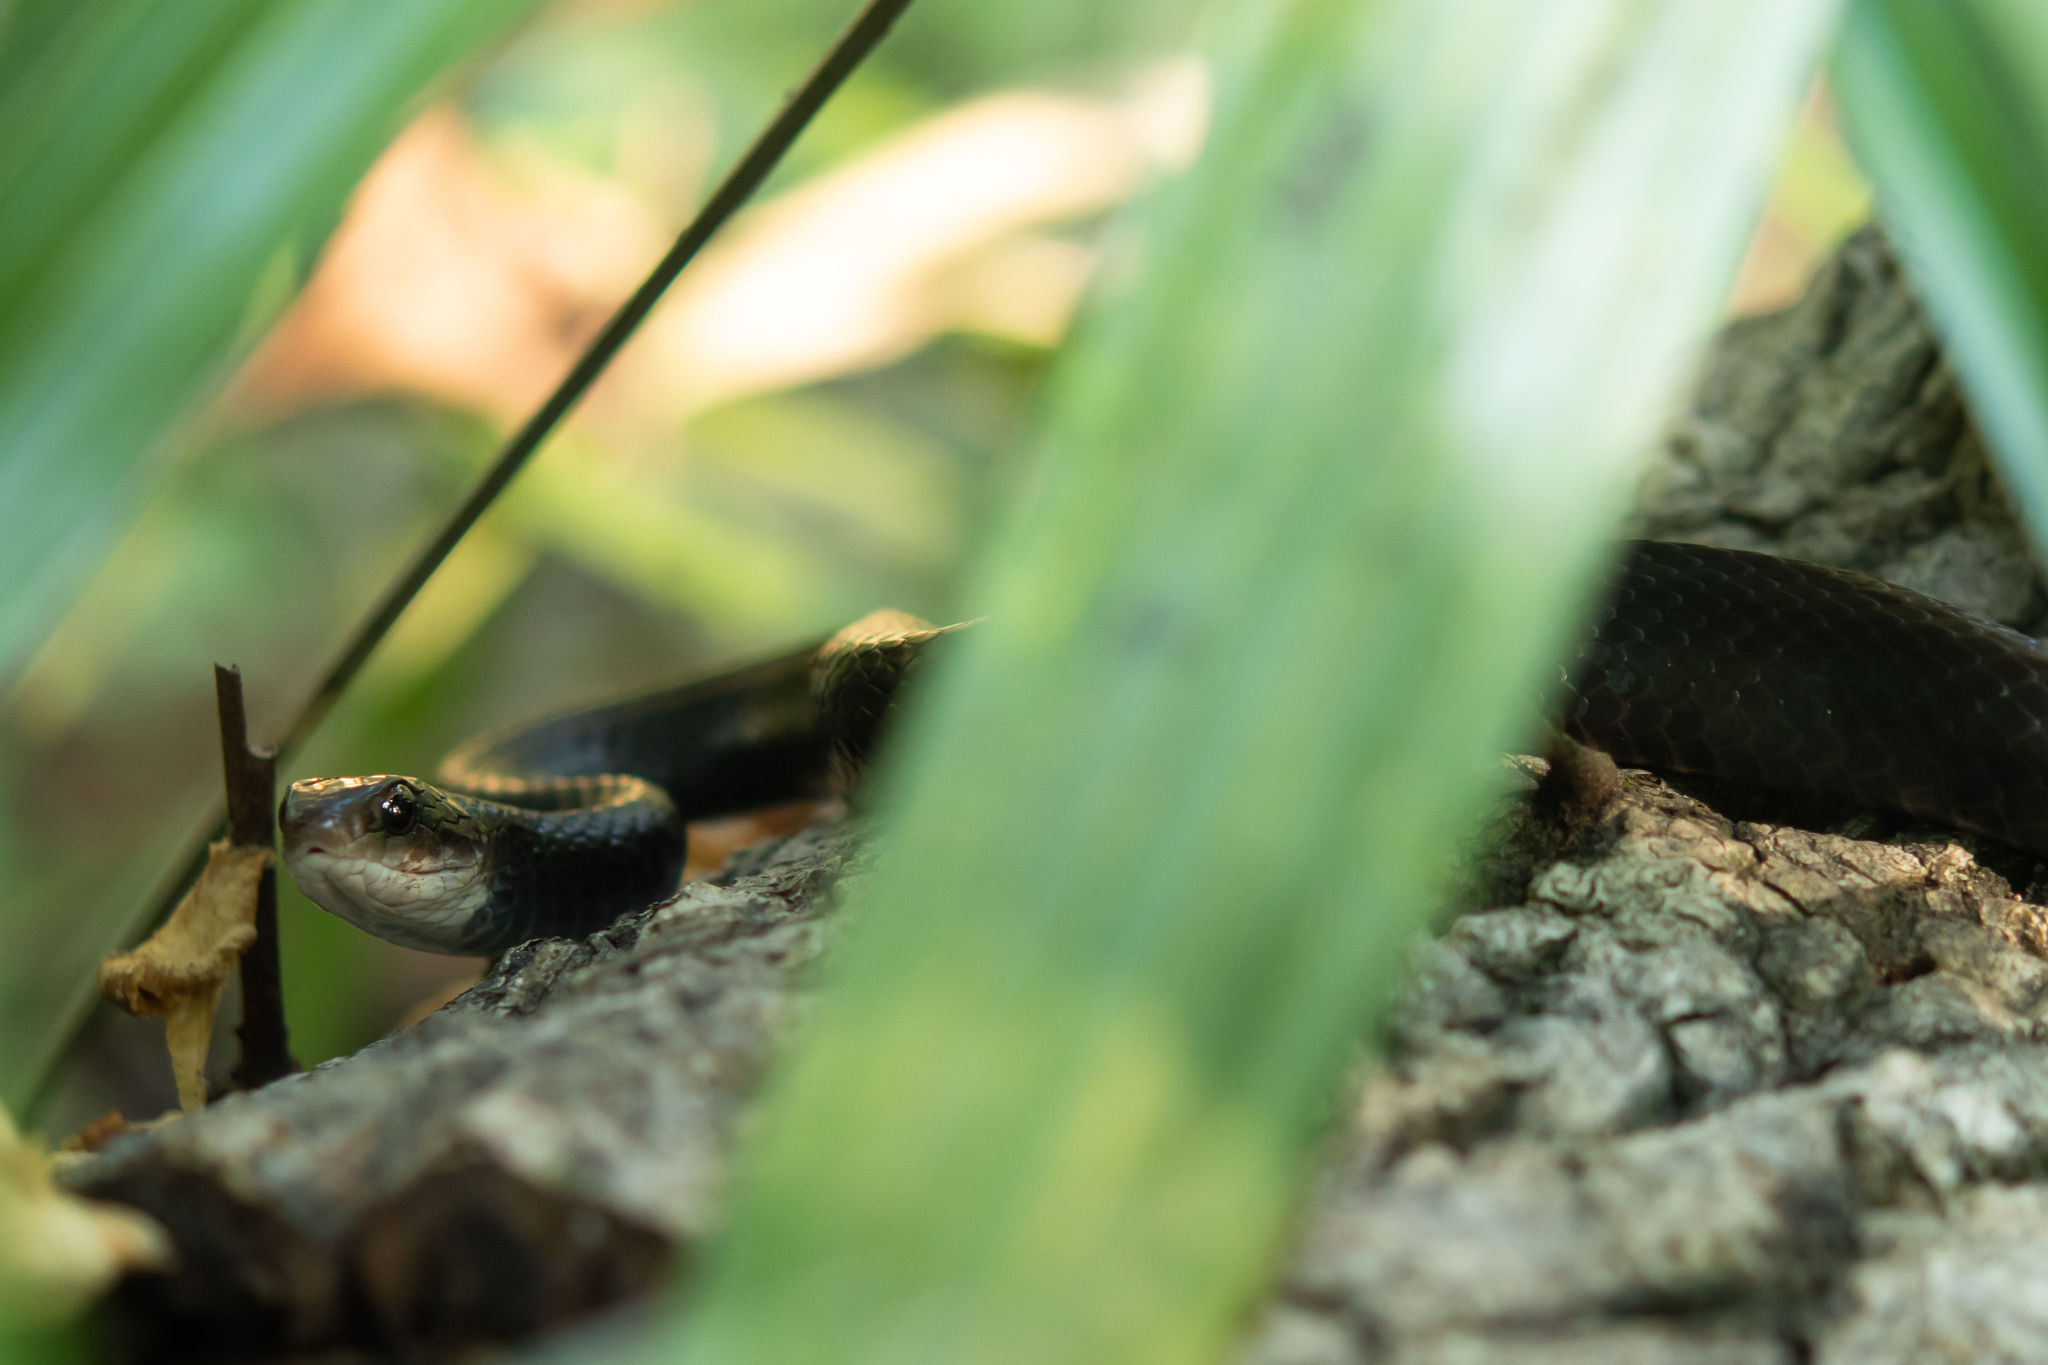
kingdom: Animalia
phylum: Chordata
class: Squamata
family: Colubridae
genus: Coluber
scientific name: Coluber constrictor
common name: Eastern racer
